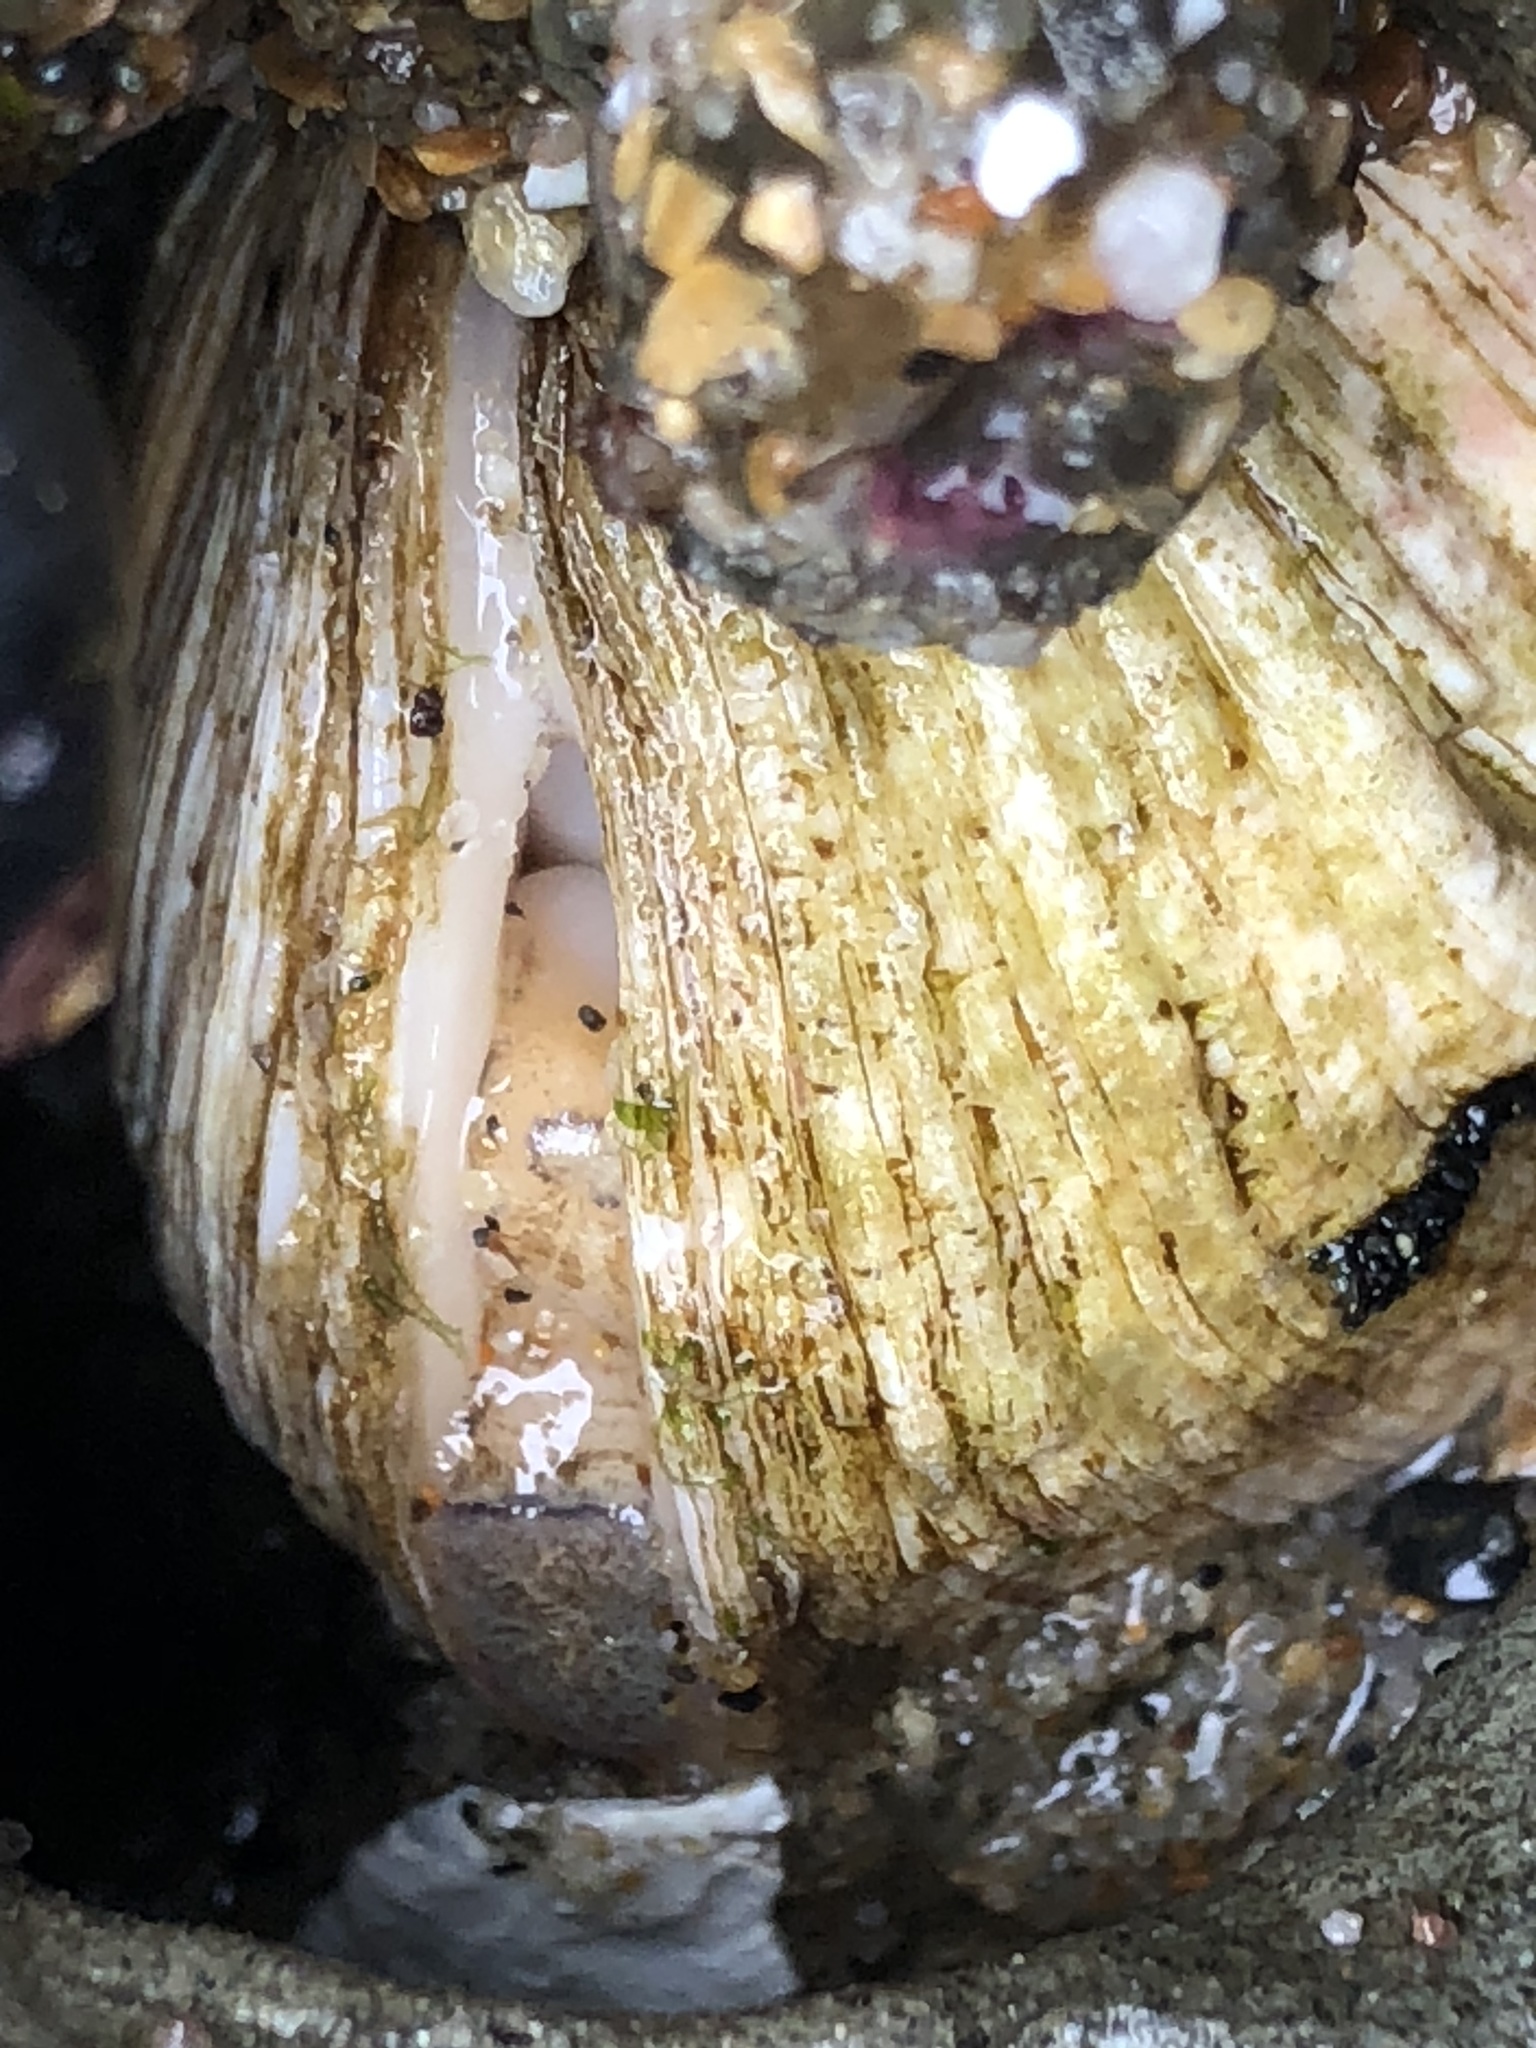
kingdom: Animalia
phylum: Mollusca
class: Bivalvia
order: Venerida
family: Veneridae
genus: Petricola
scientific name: Petricola carditoides
